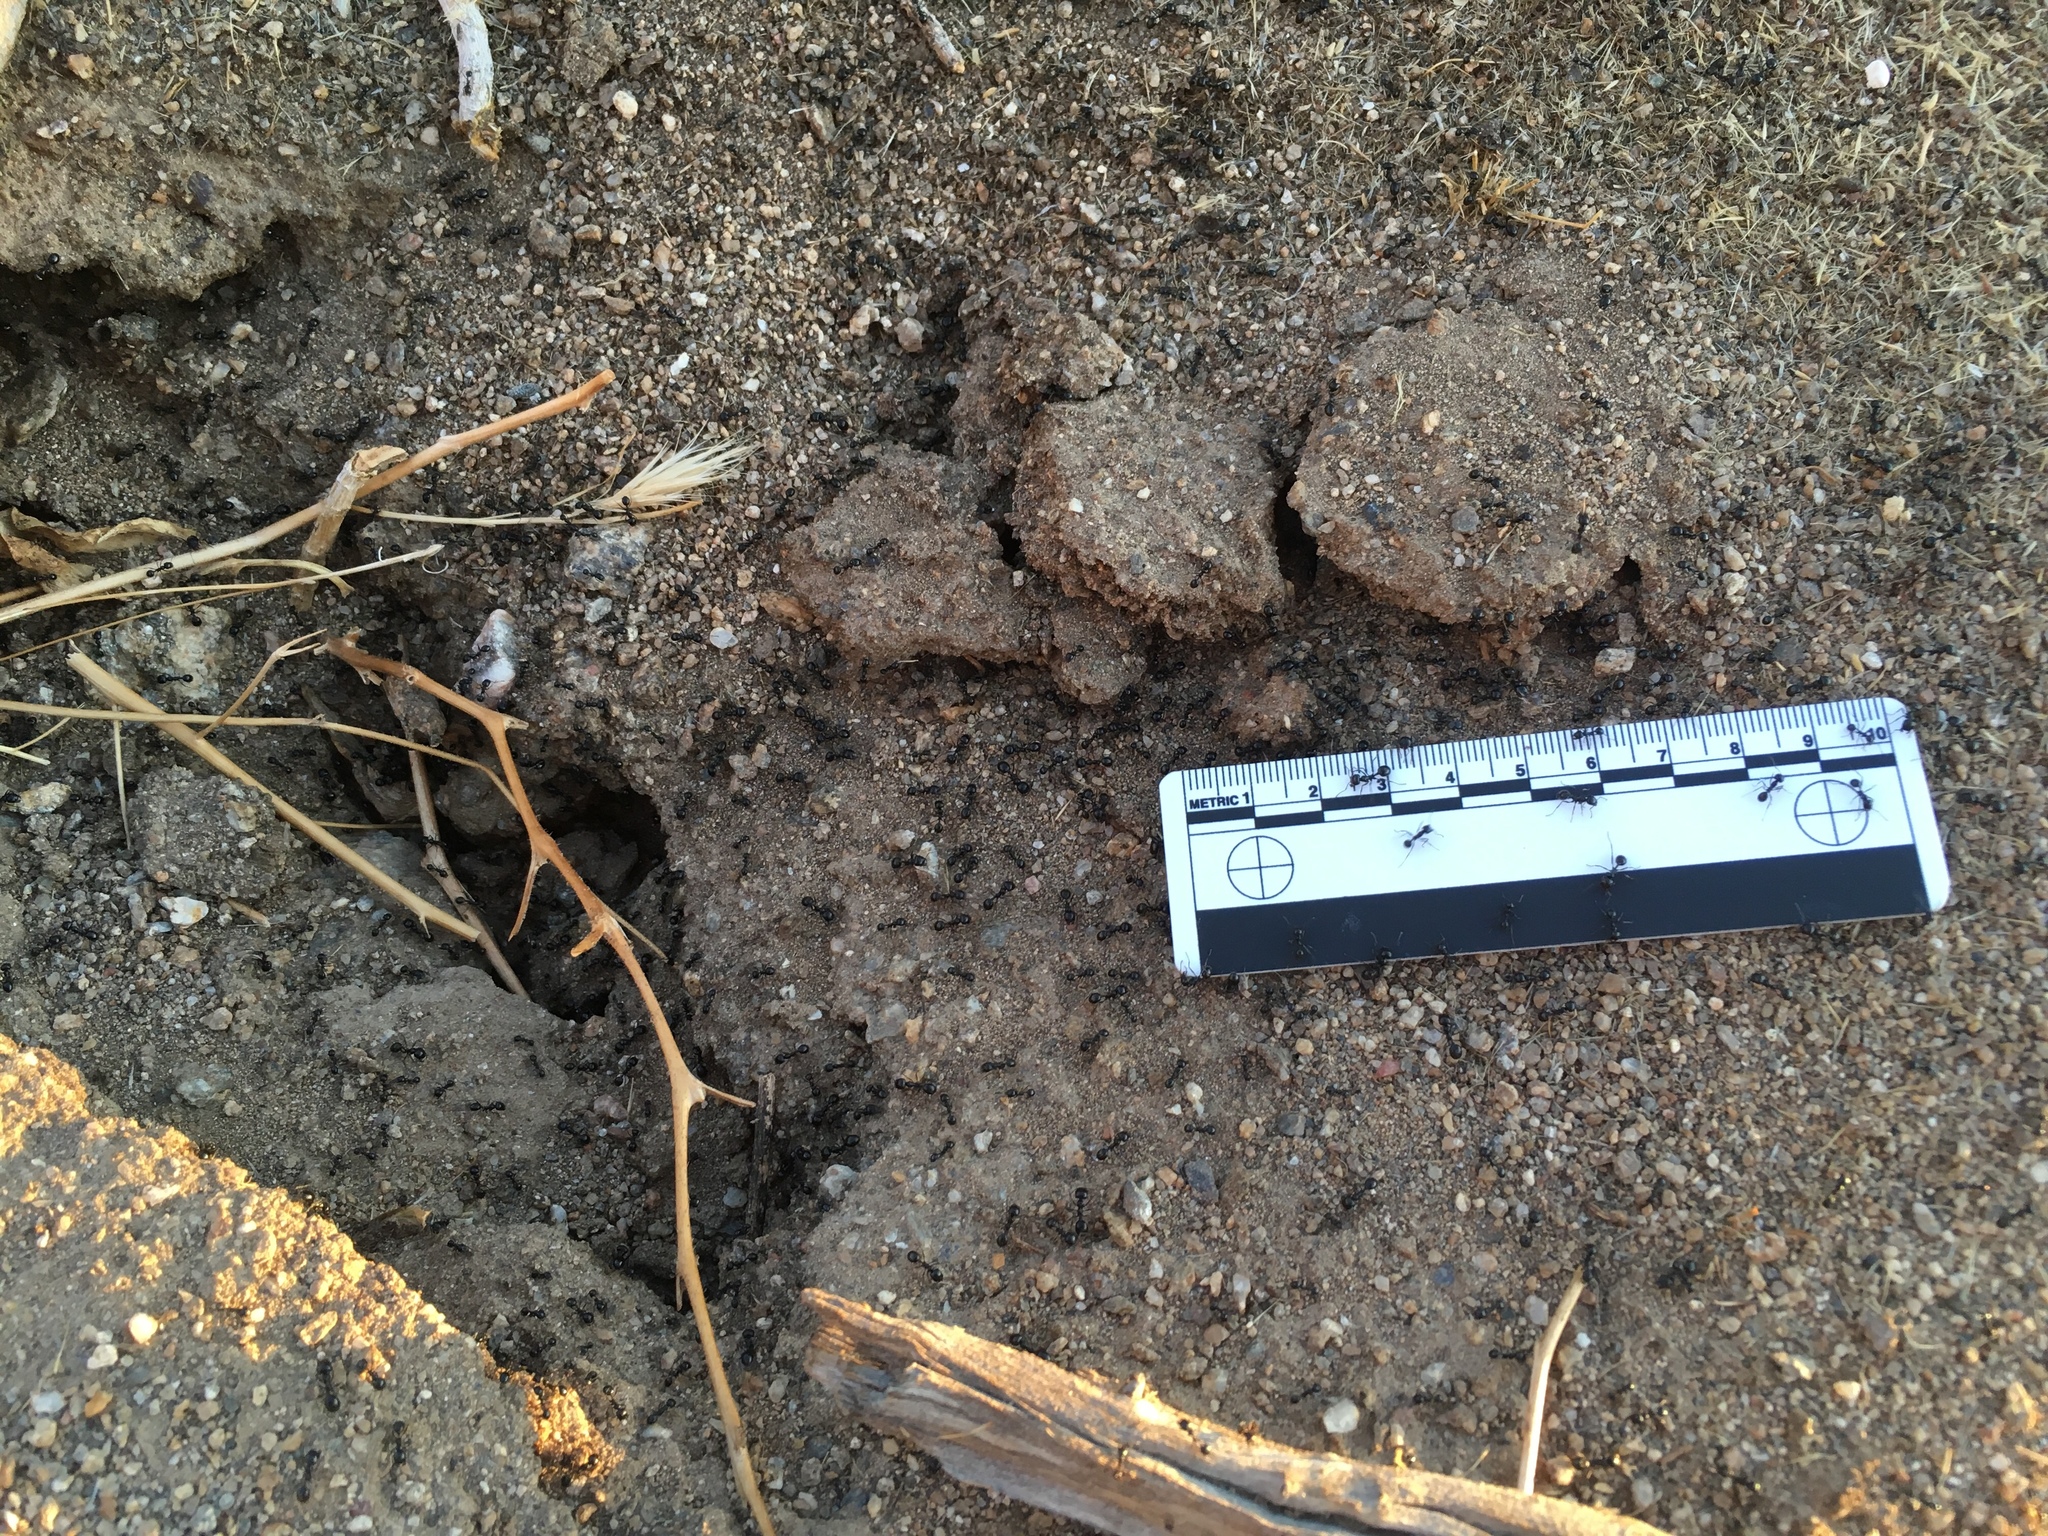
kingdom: Animalia
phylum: Arthropoda
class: Insecta
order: Hymenoptera
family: Formicidae
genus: Messor
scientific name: Messor pergandei
